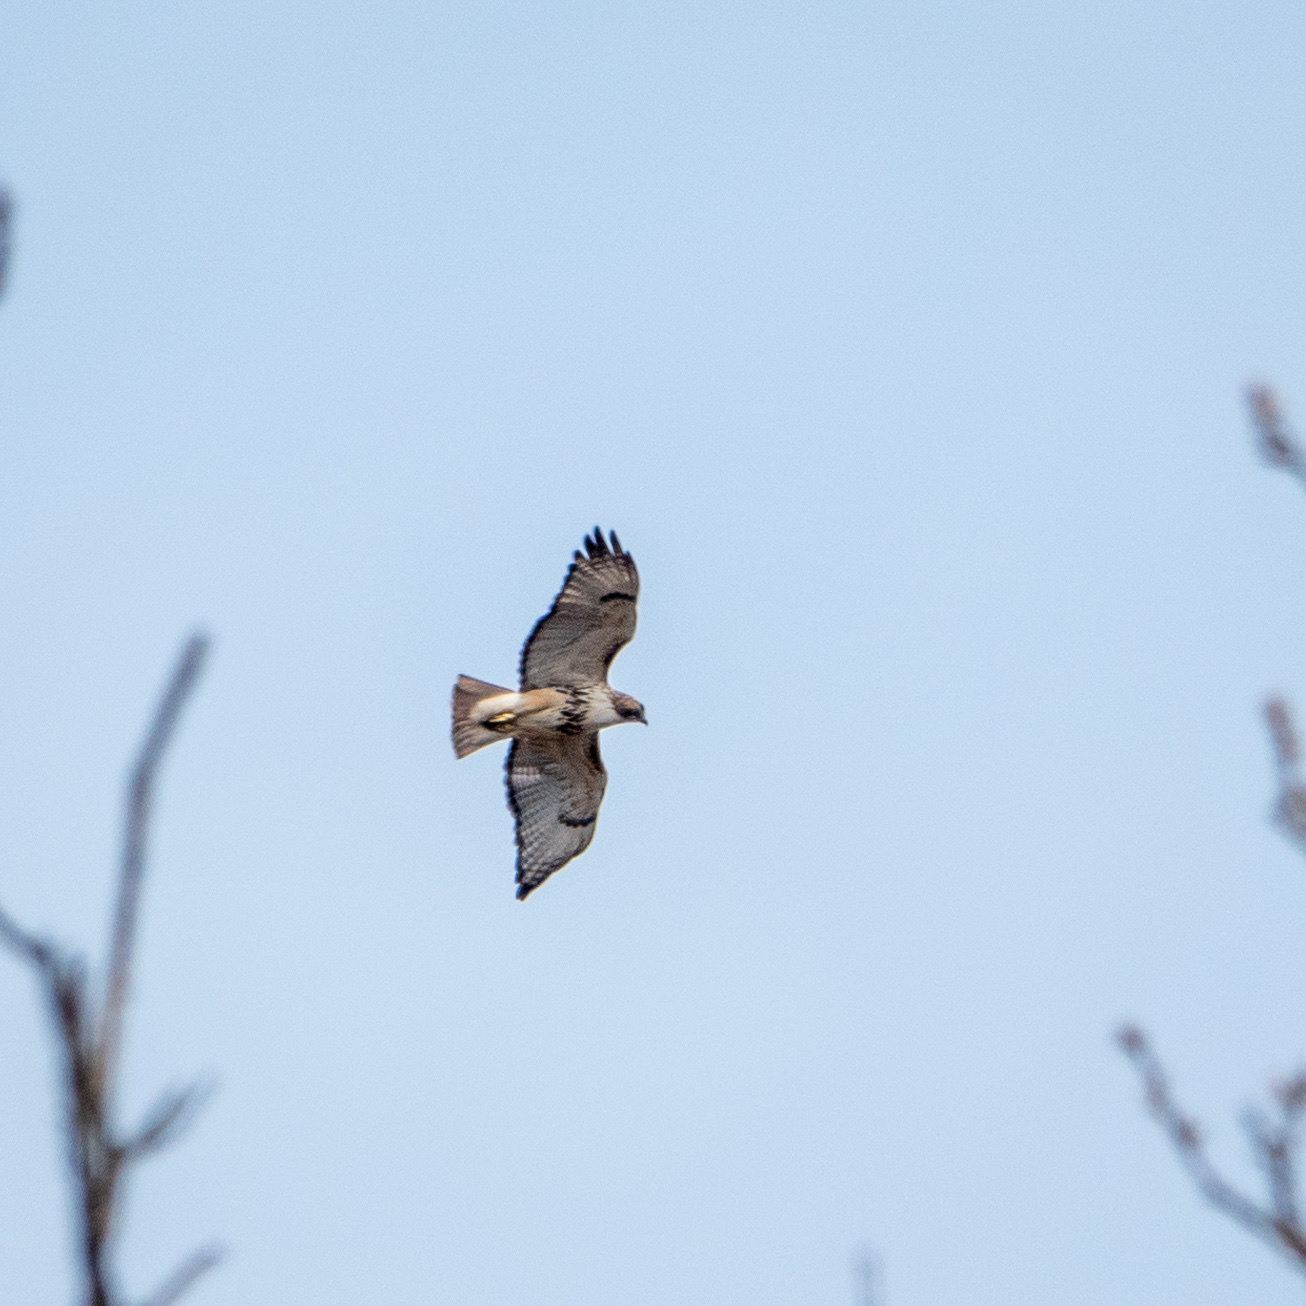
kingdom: Animalia
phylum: Chordata
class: Aves
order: Accipitriformes
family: Accipitridae
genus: Buteo
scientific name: Buteo jamaicensis
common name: Red-tailed hawk
